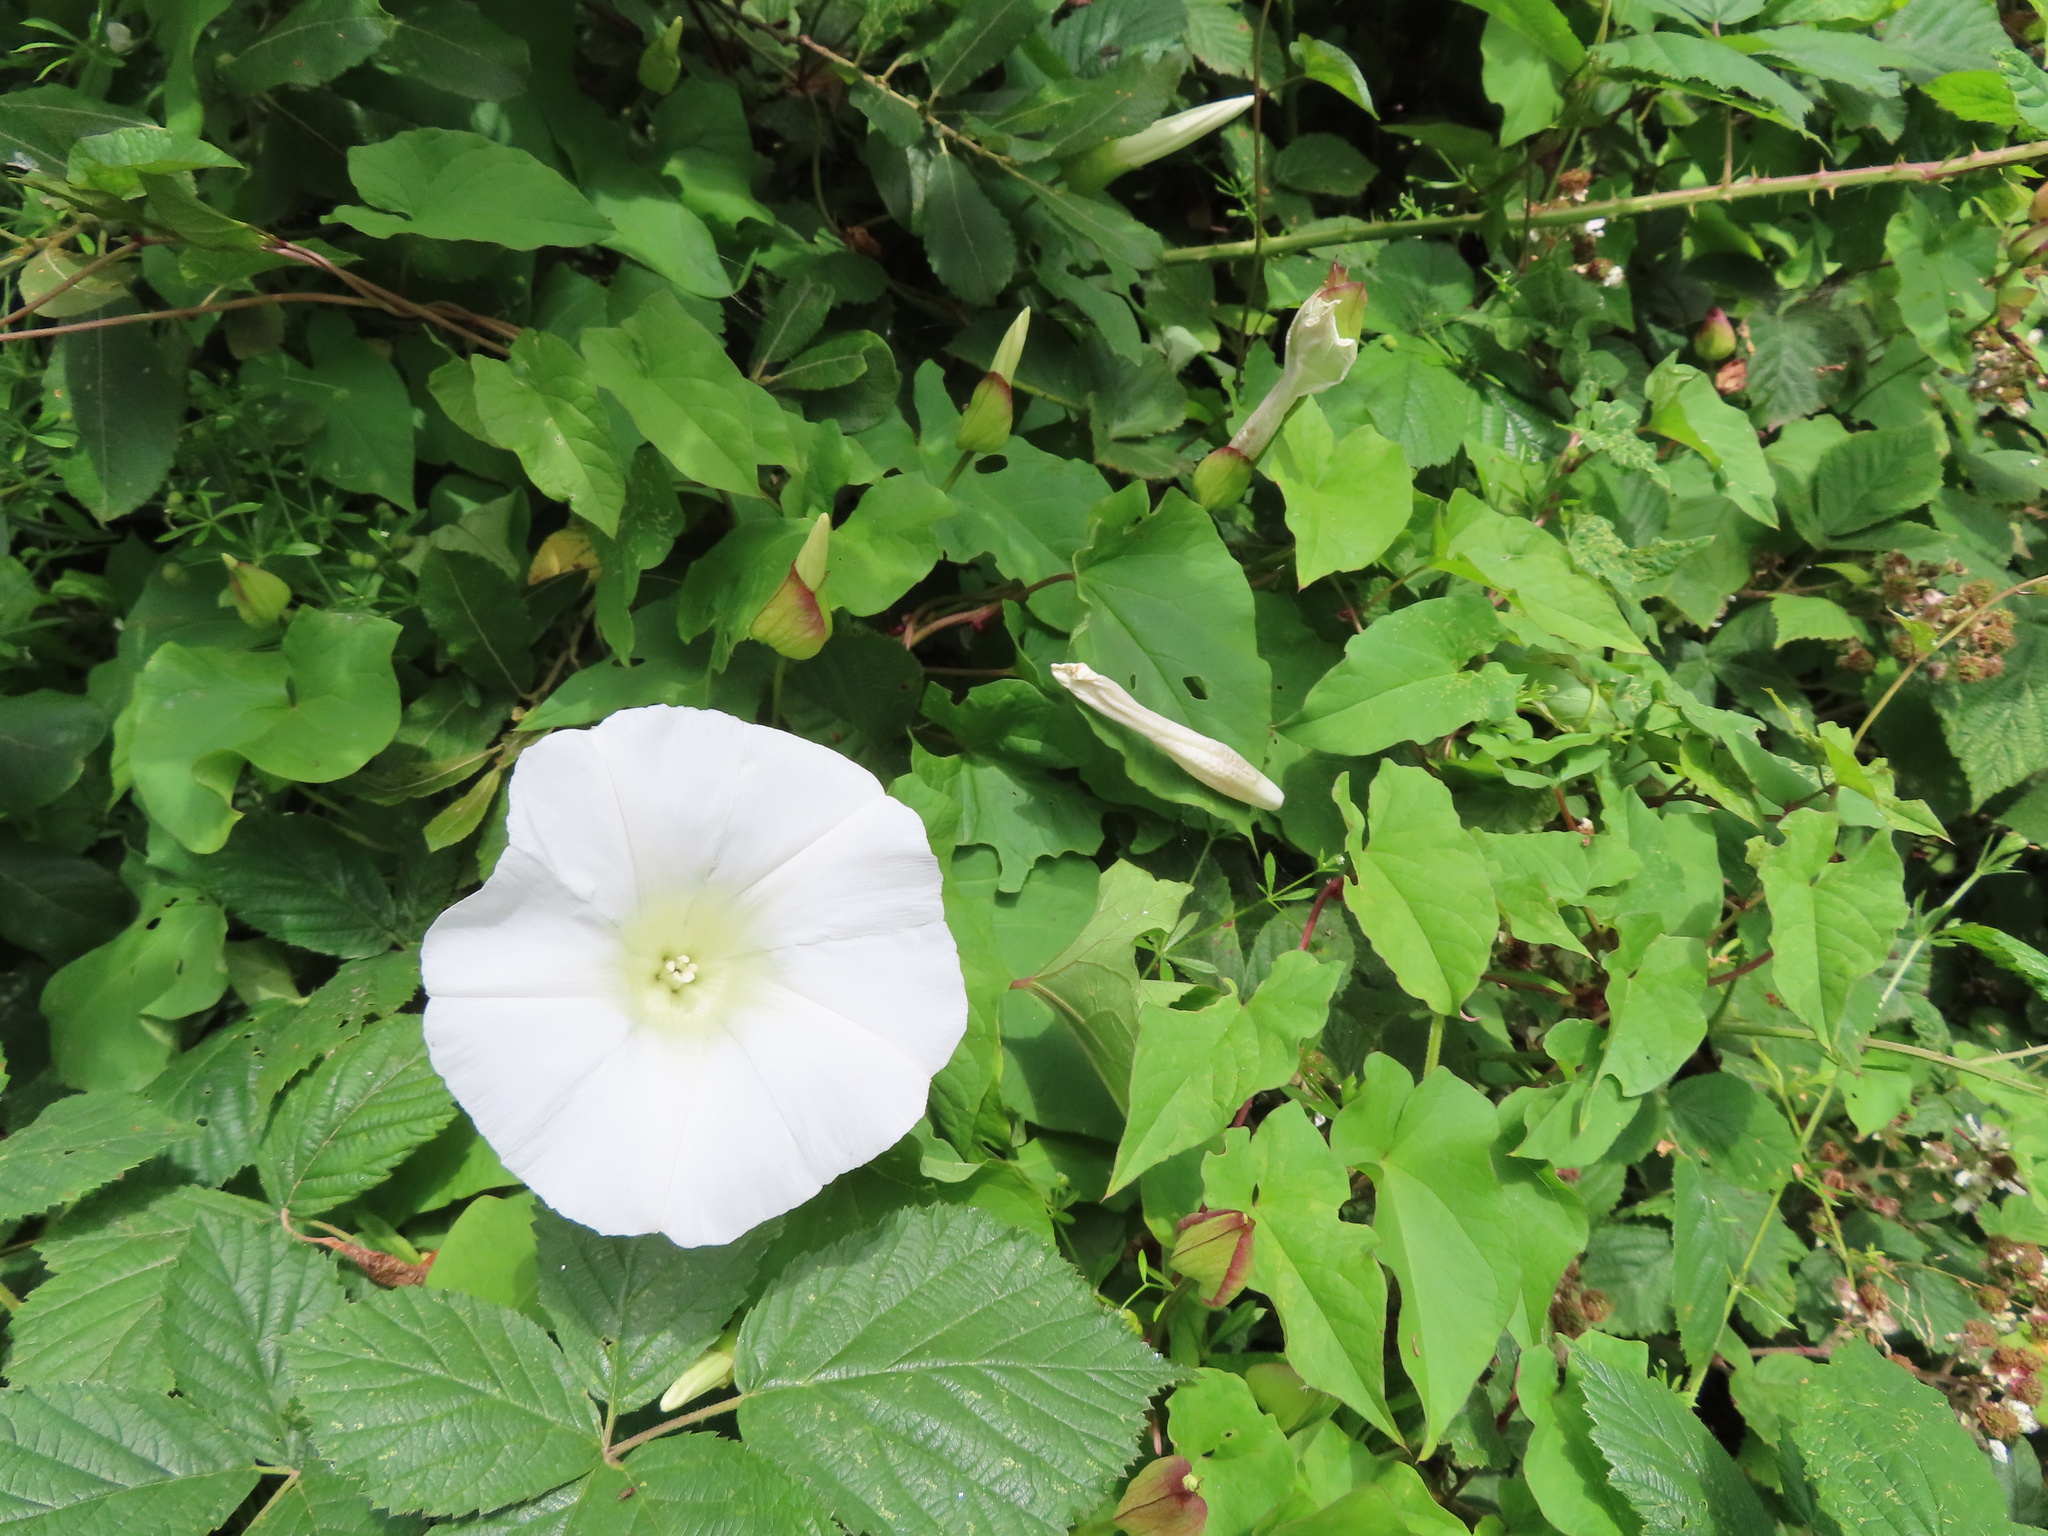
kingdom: Plantae
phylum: Tracheophyta
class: Magnoliopsida
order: Solanales
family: Convolvulaceae
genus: Calystegia
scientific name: Calystegia silvatica
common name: Large bindweed
